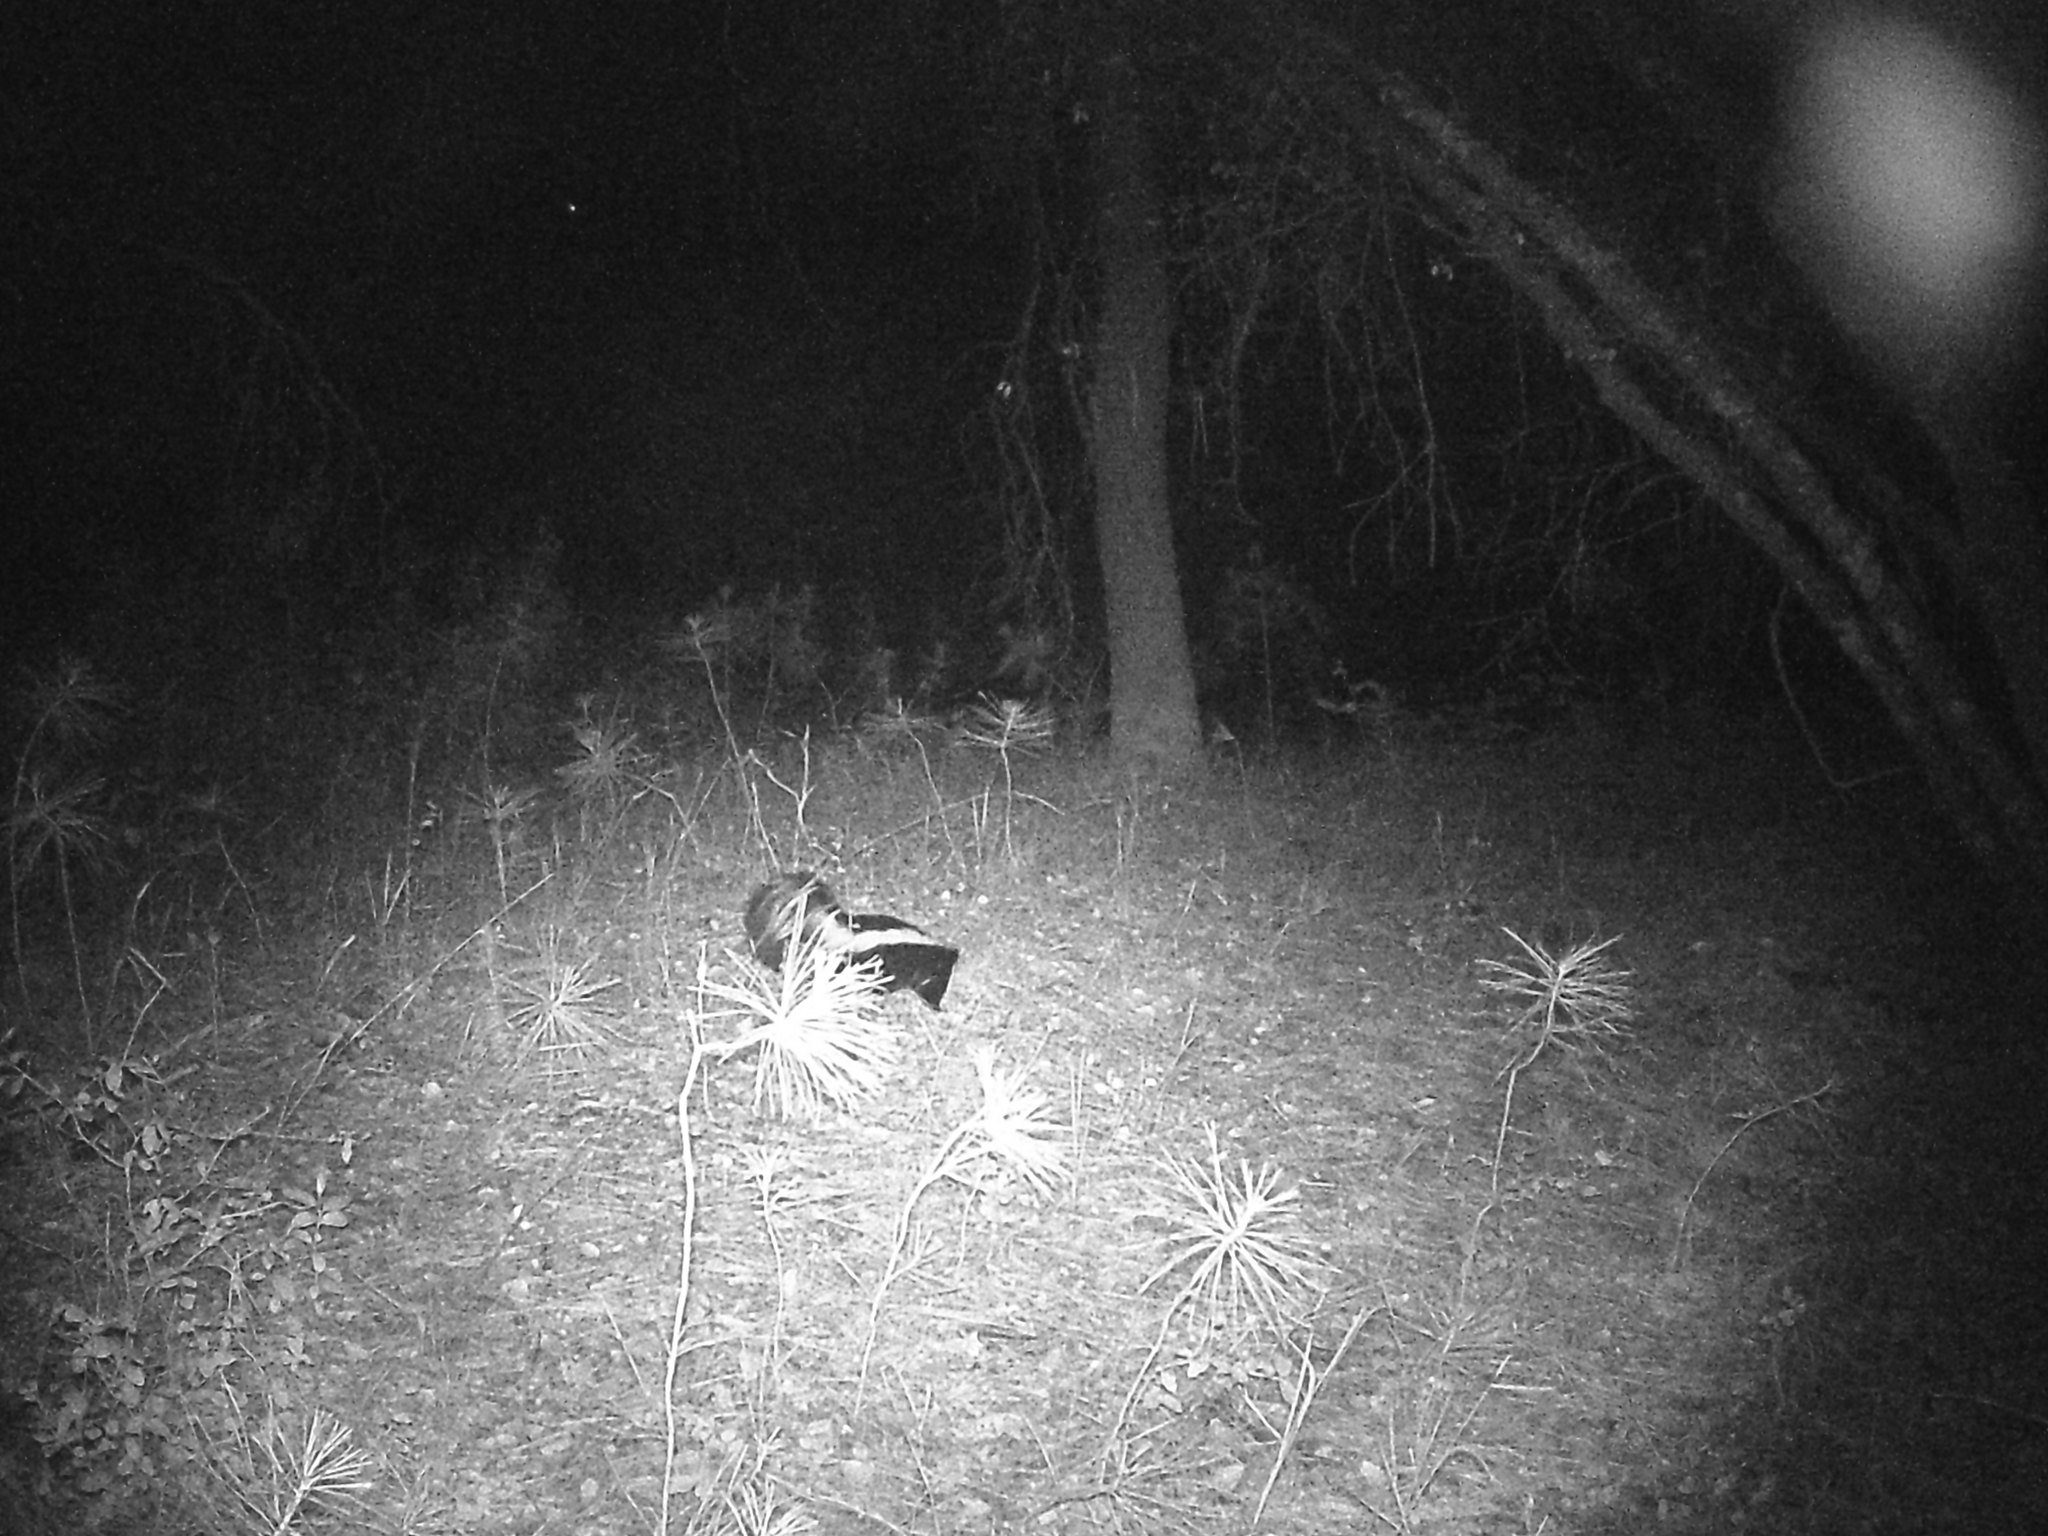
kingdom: Animalia
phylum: Chordata
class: Mammalia
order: Carnivora
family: Mephitidae
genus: Mephitis
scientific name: Mephitis mephitis
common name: Striped skunk
